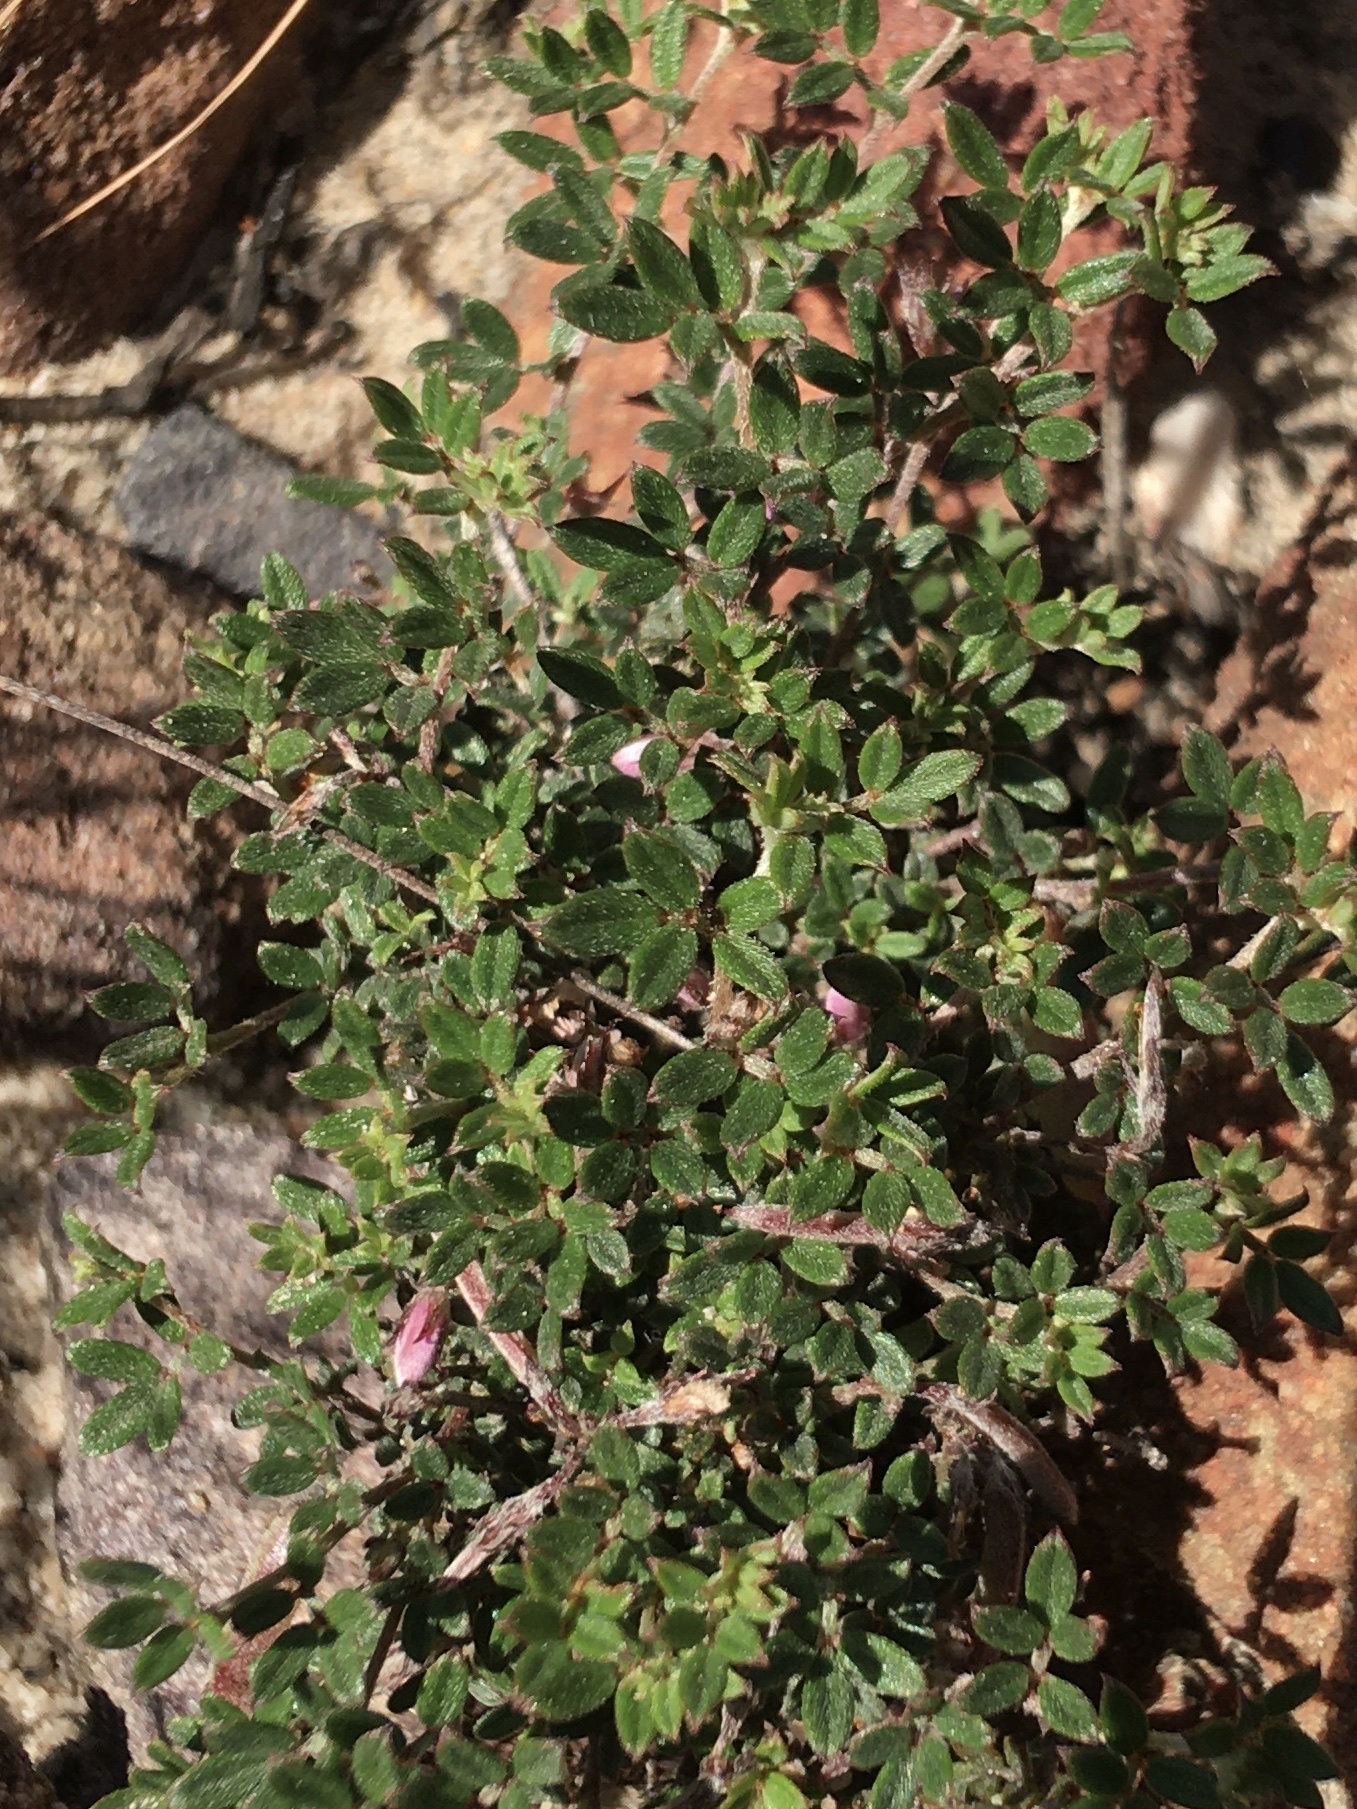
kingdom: Plantae
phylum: Tracheophyta
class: Magnoliopsida
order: Fabales
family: Fabaceae
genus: Indigofera
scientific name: Indigofera pilgeriana
